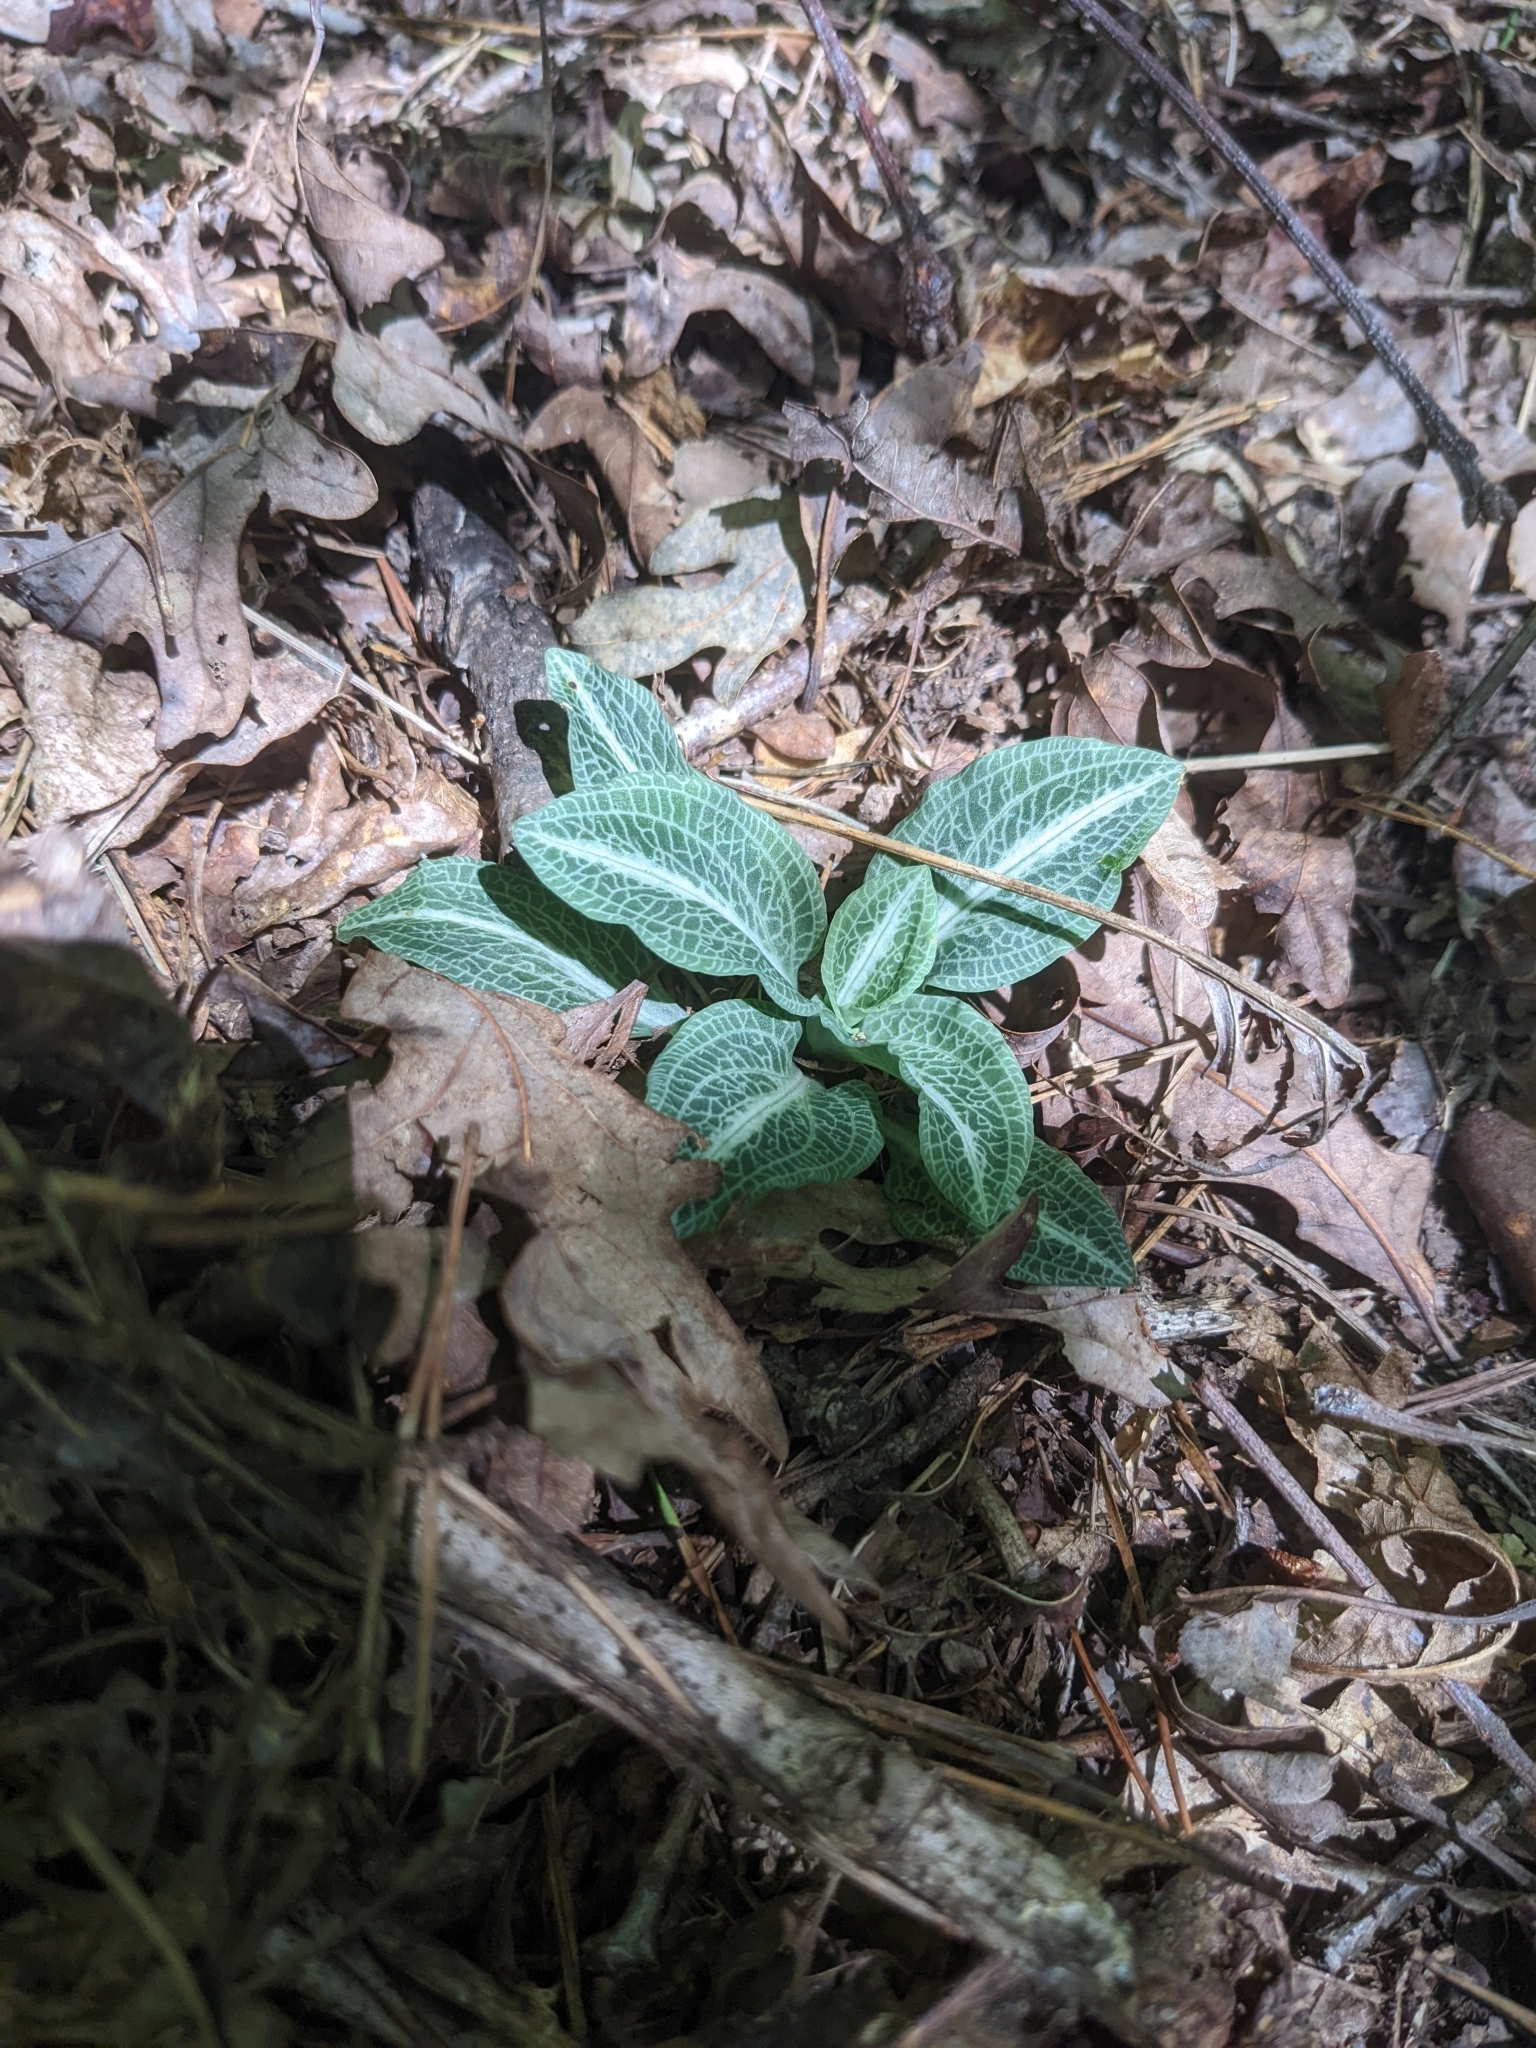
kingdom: Plantae
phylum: Tracheophyta
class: Liliopsida
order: Asparagales
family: Orchidaceae
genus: Goodyera
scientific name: Goodyera pubescens
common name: Downy rattlesnake-plantain
